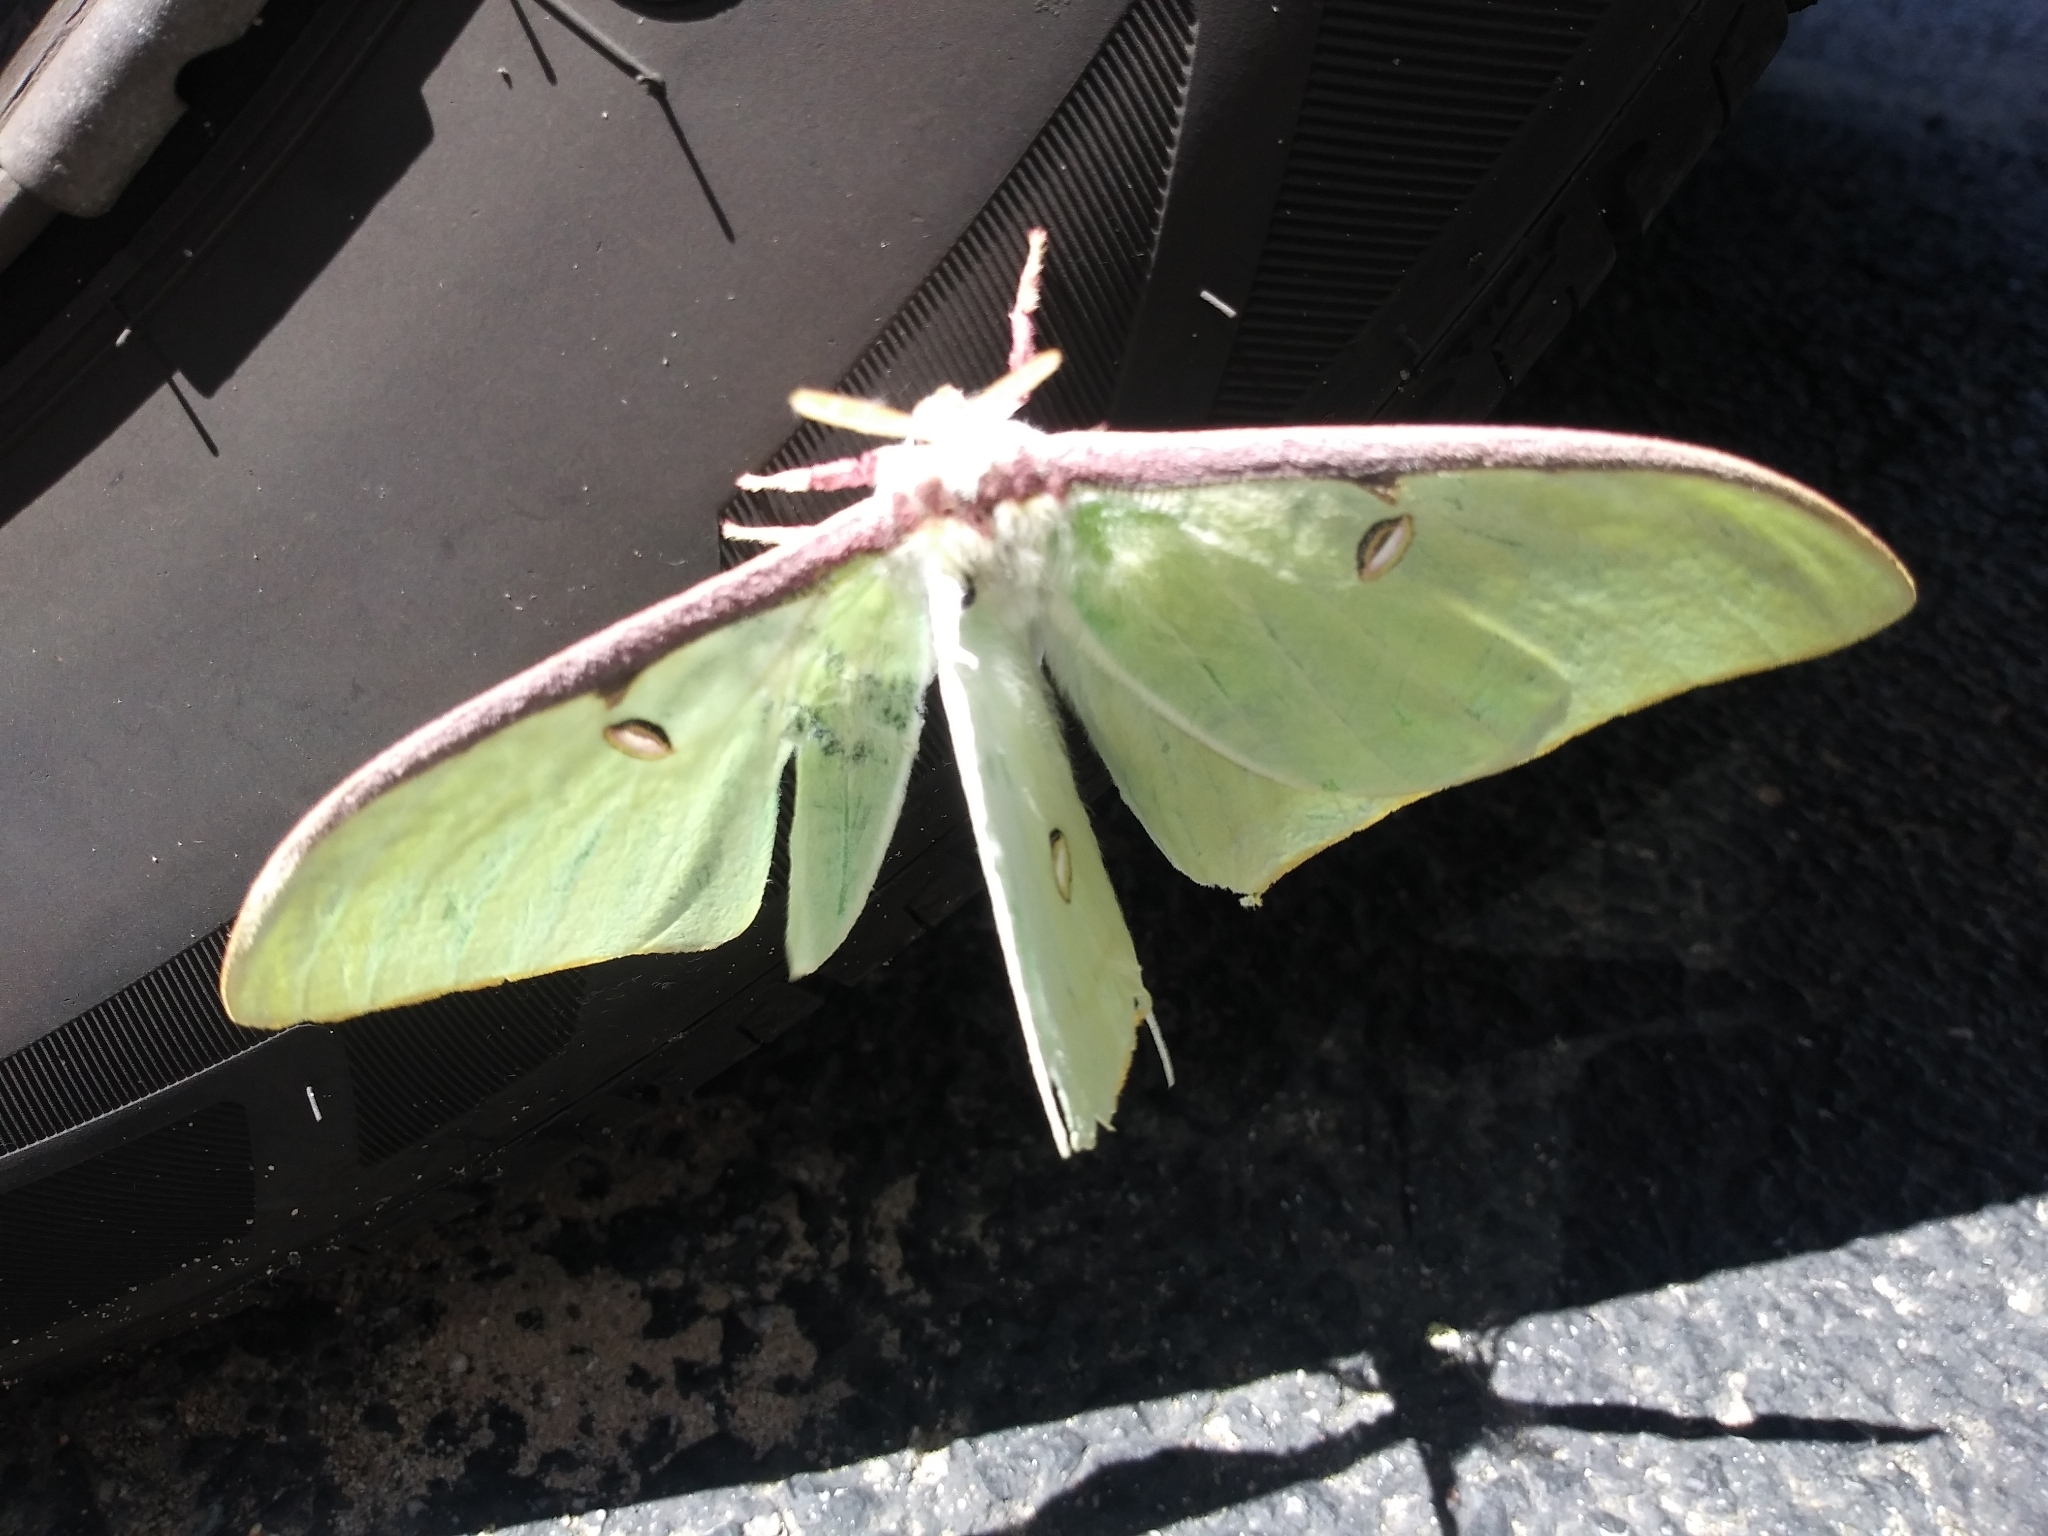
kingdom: Animalia
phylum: Arthropoda
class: Insecta
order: Lepidoptera
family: Saturniidae
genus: Actias
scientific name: Actias luna
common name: Luna moth
